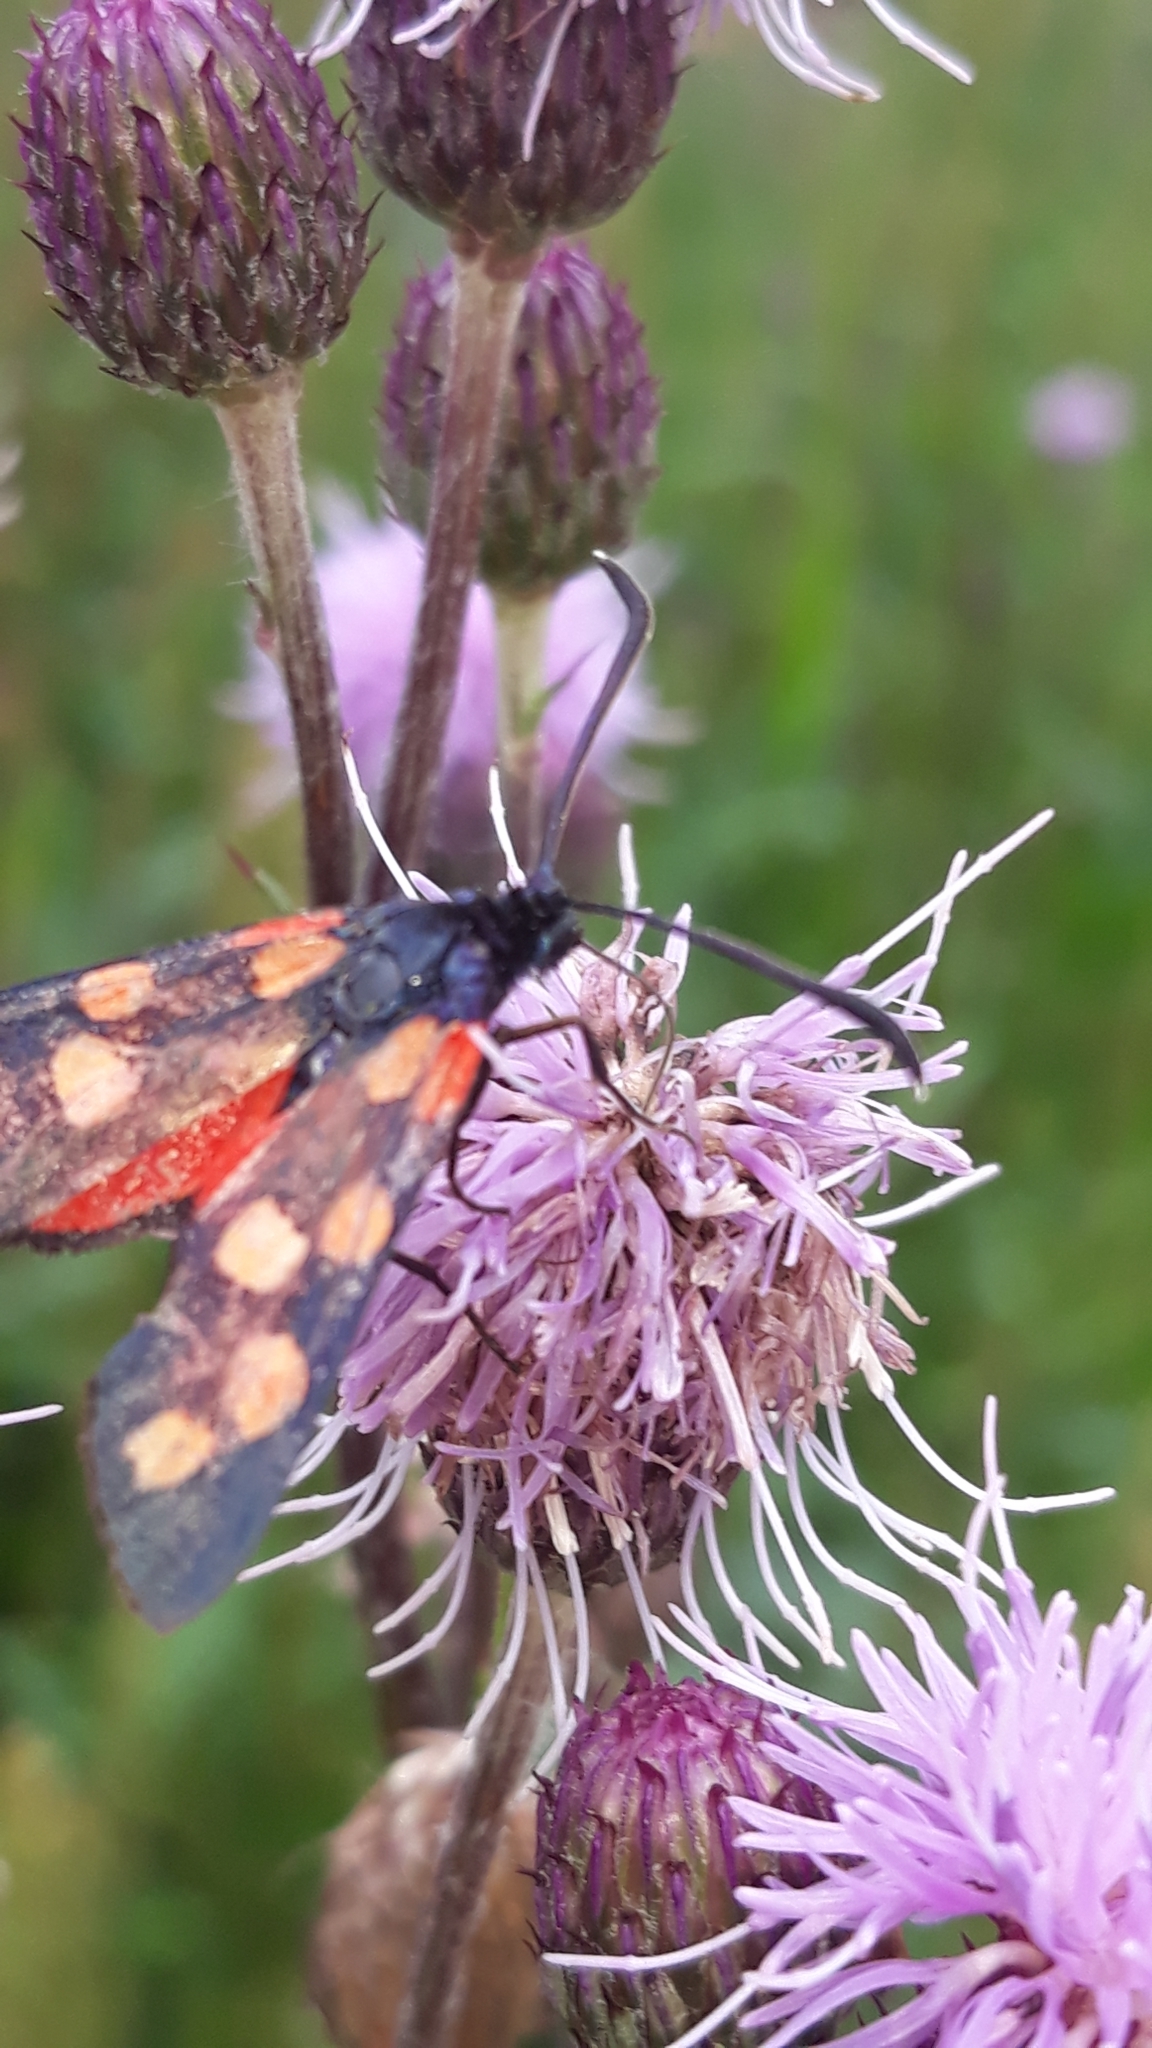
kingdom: Animalia
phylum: Arthropoda
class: Insecta
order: Lepidoptera
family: Zygaenidae
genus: Zygaena
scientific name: Zygaena transalpina
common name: Southern six spot burnet
